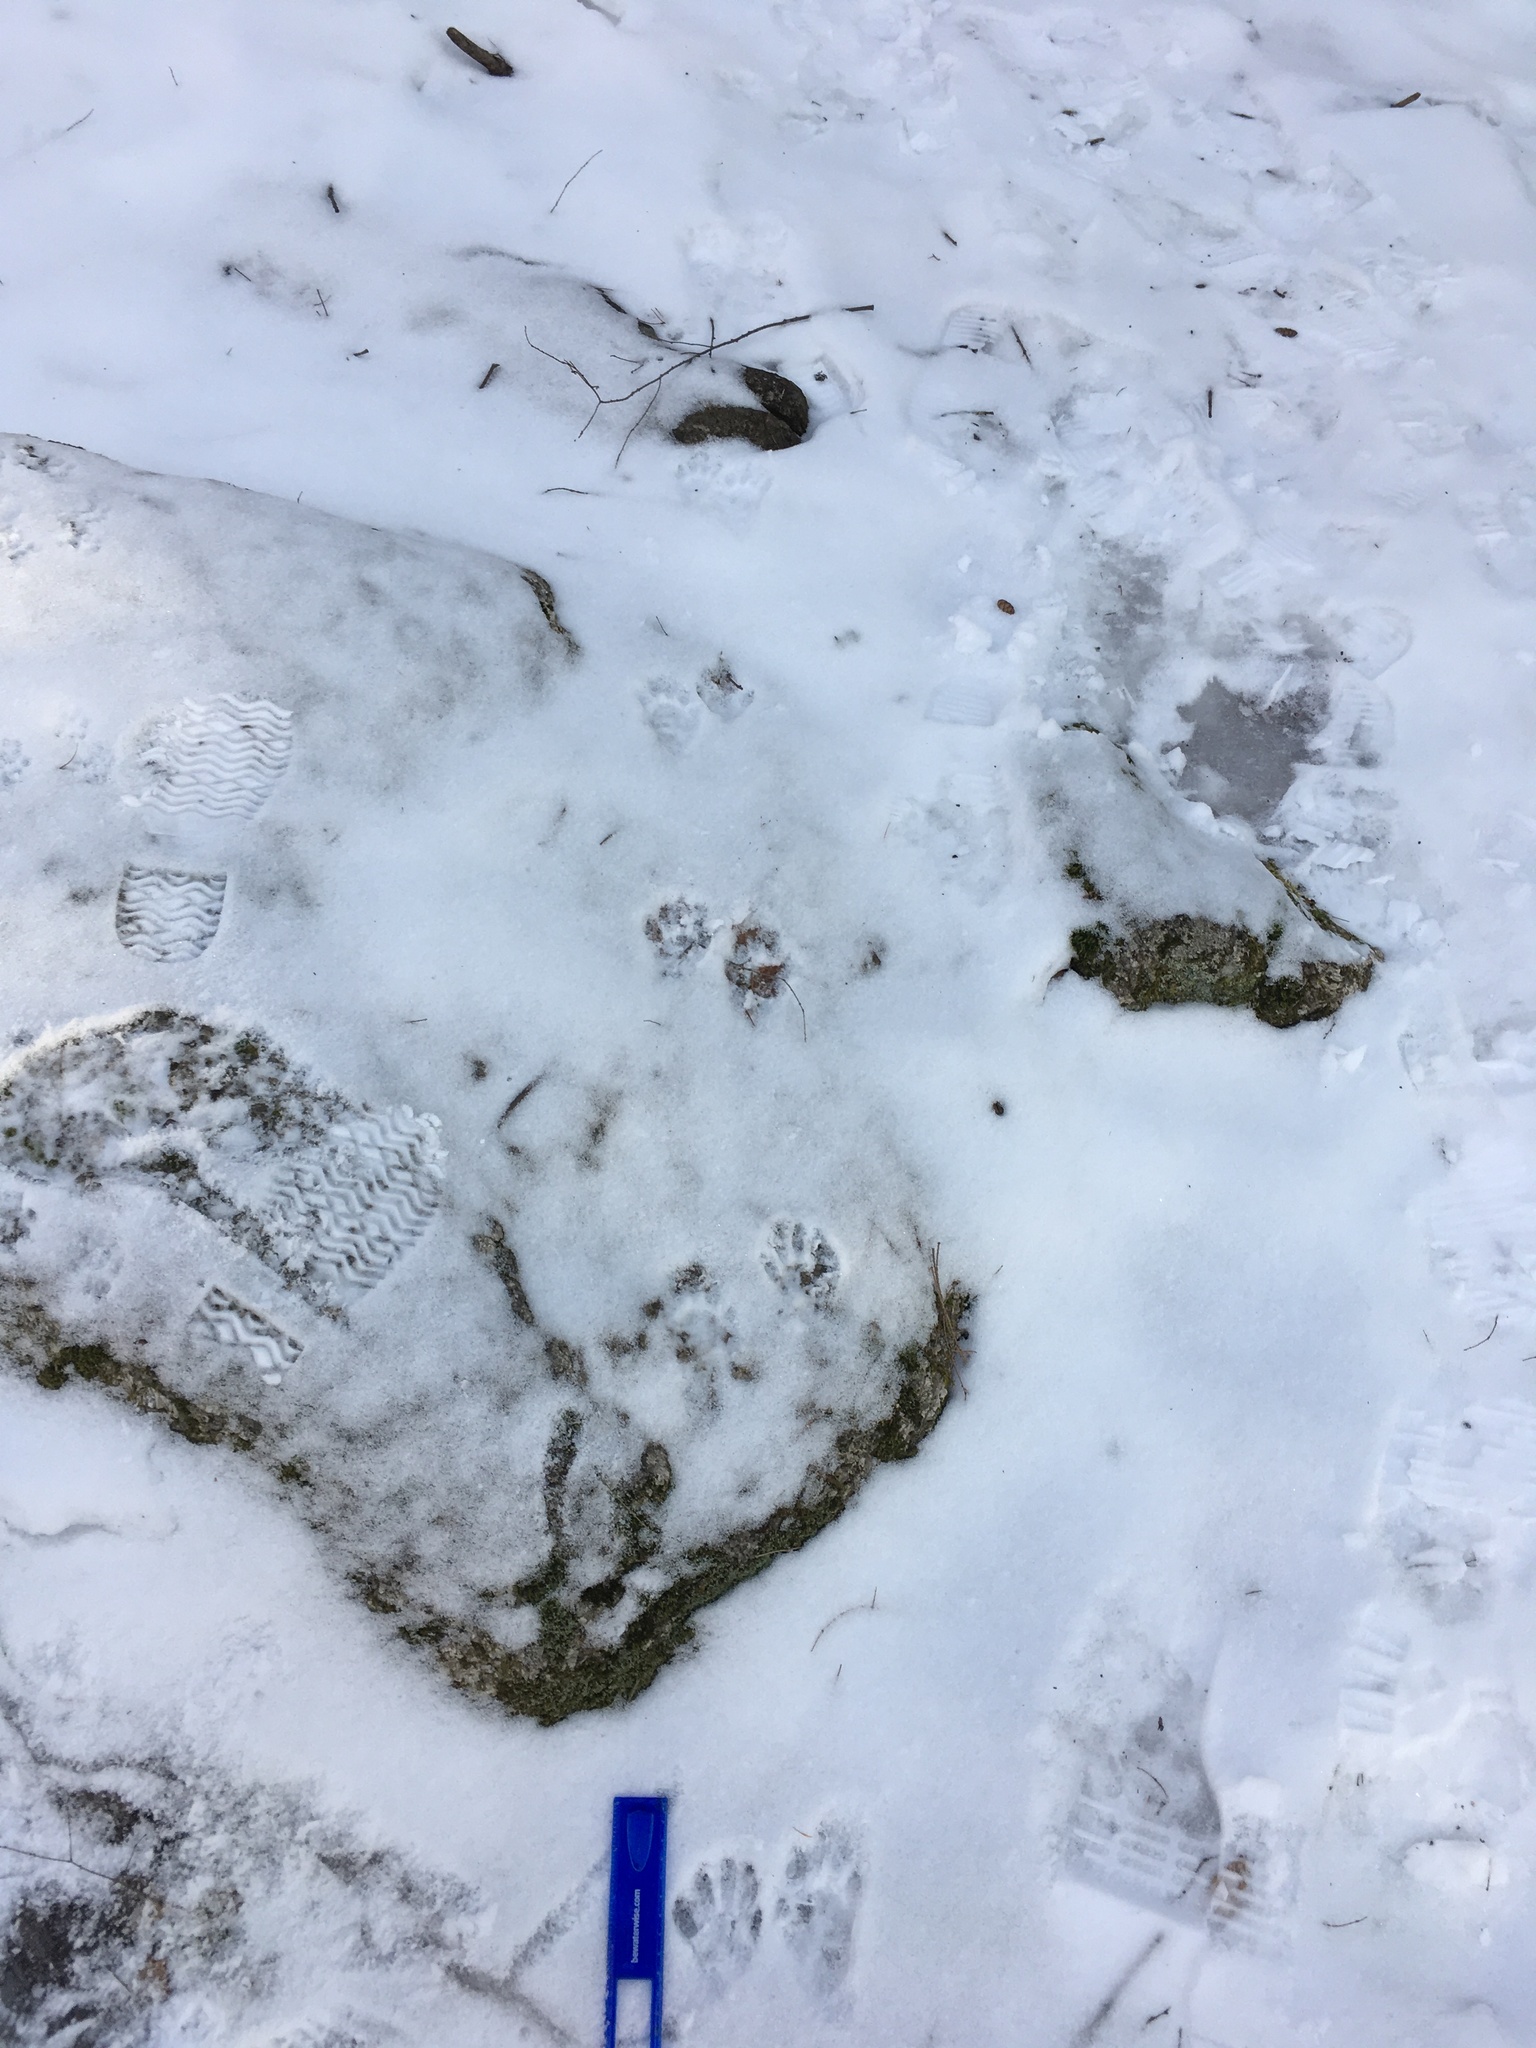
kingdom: Animalia
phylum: Chordata
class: Mammalia
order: Carnivora
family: Procyonidae
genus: Procyon
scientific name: Procyon lotor
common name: Raccoon
